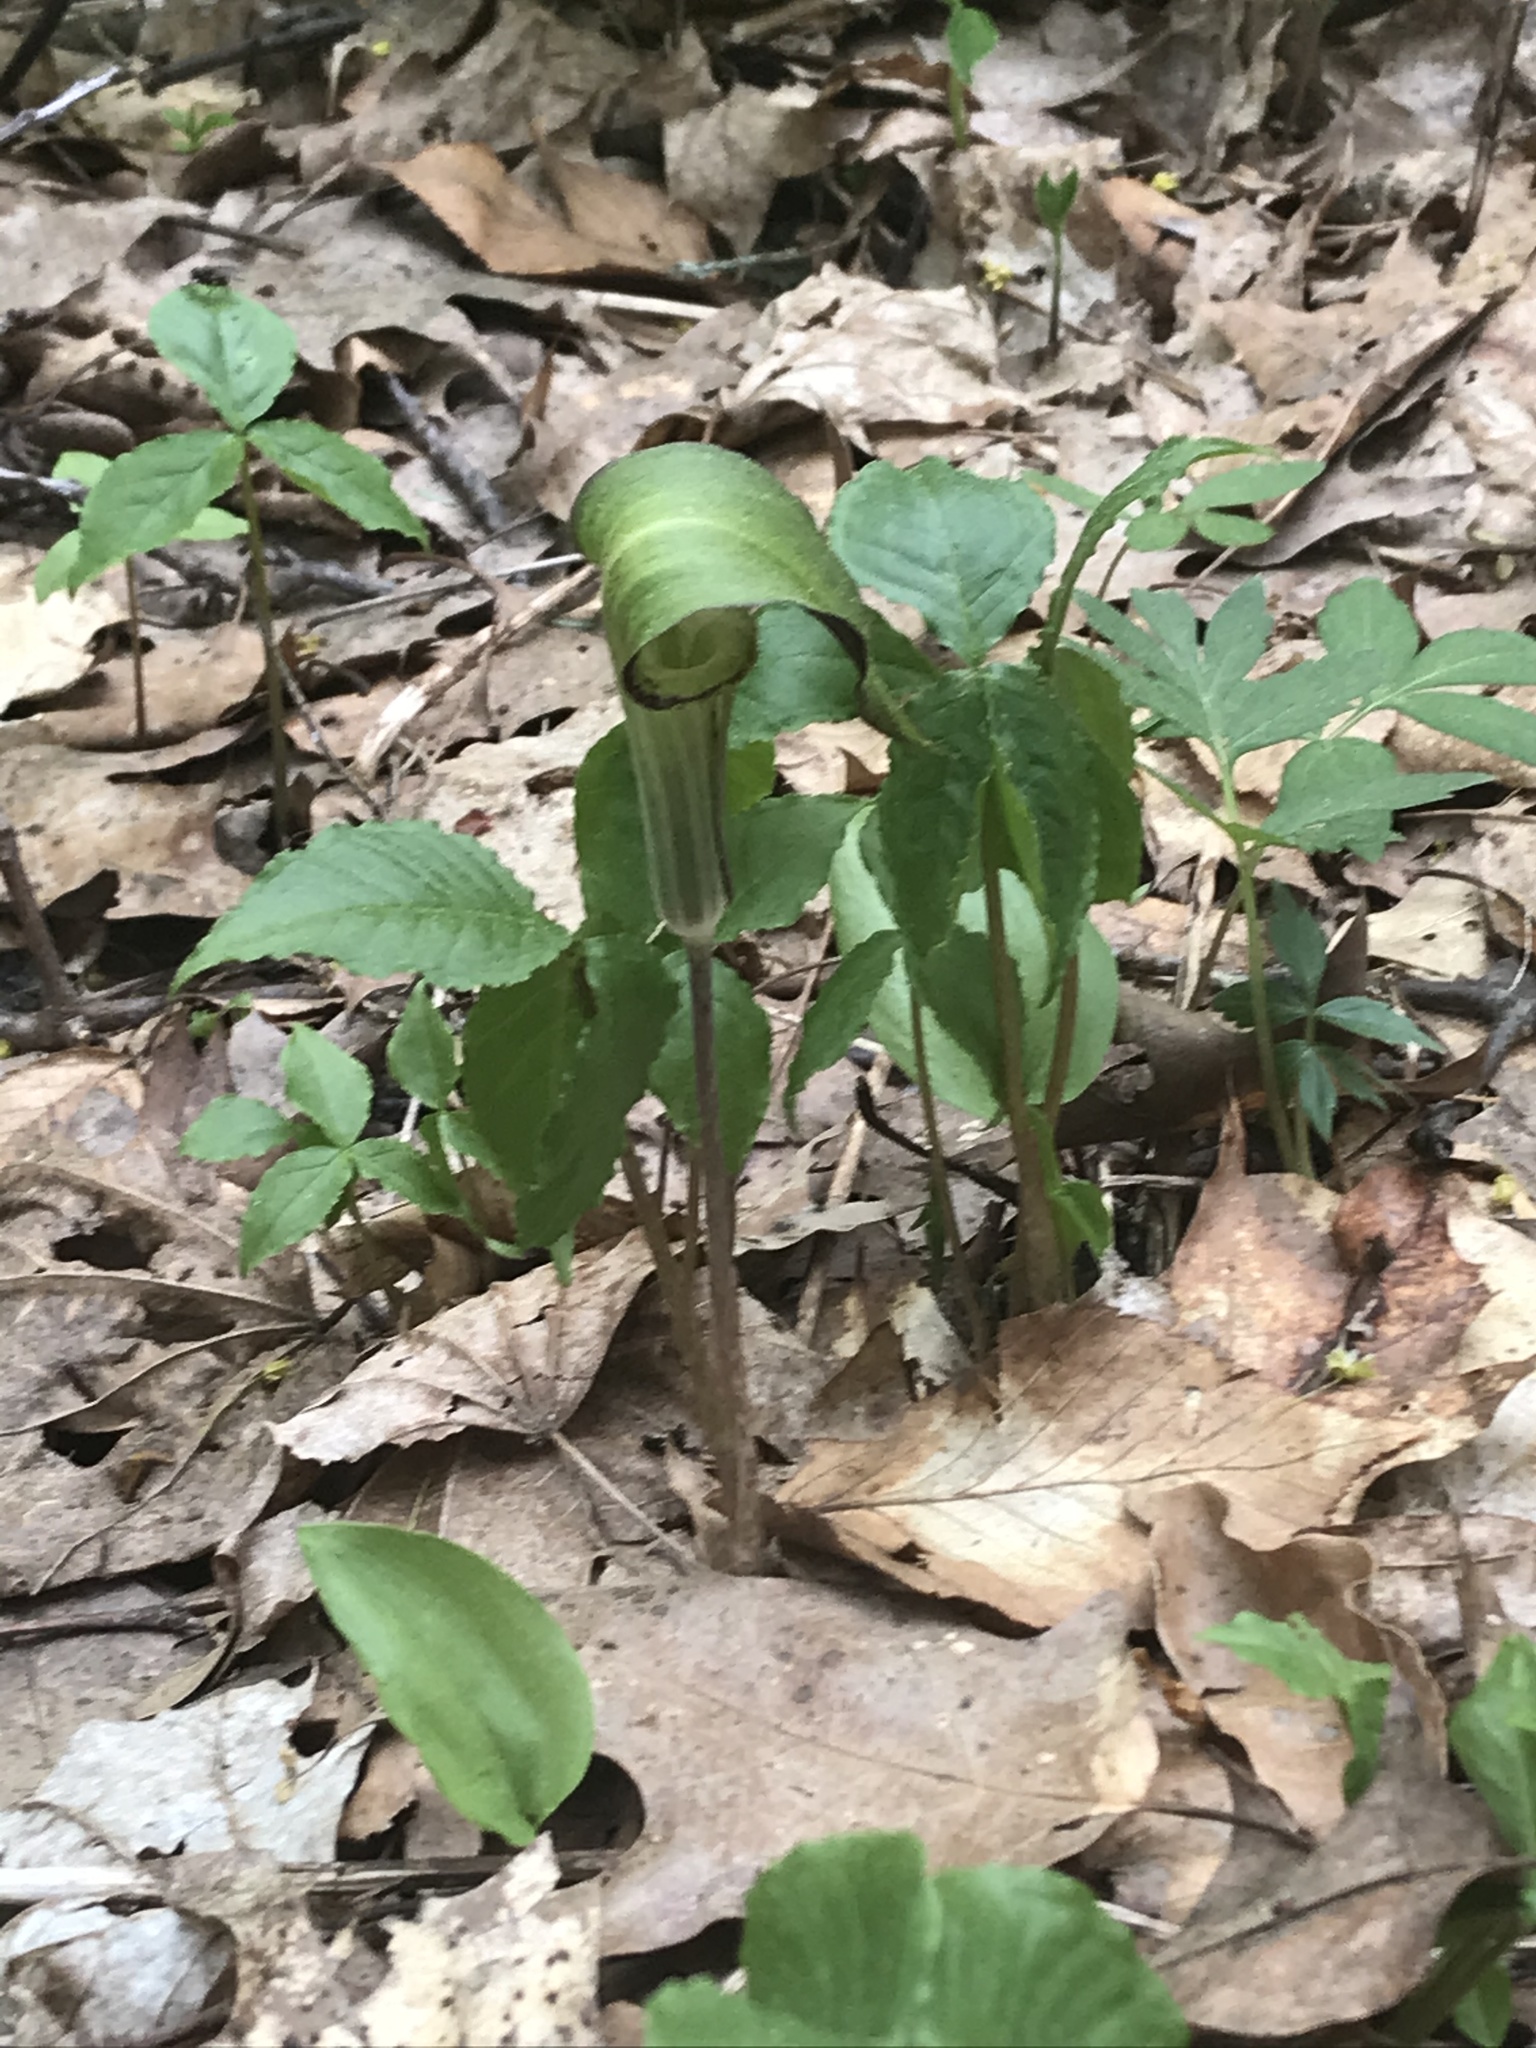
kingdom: Plantae
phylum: Tracheophyta
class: Liliopsida
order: Alismatales
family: Araceae
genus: Arisaema
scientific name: Arisaema triphyllum
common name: Jack-in-the-pulpit
